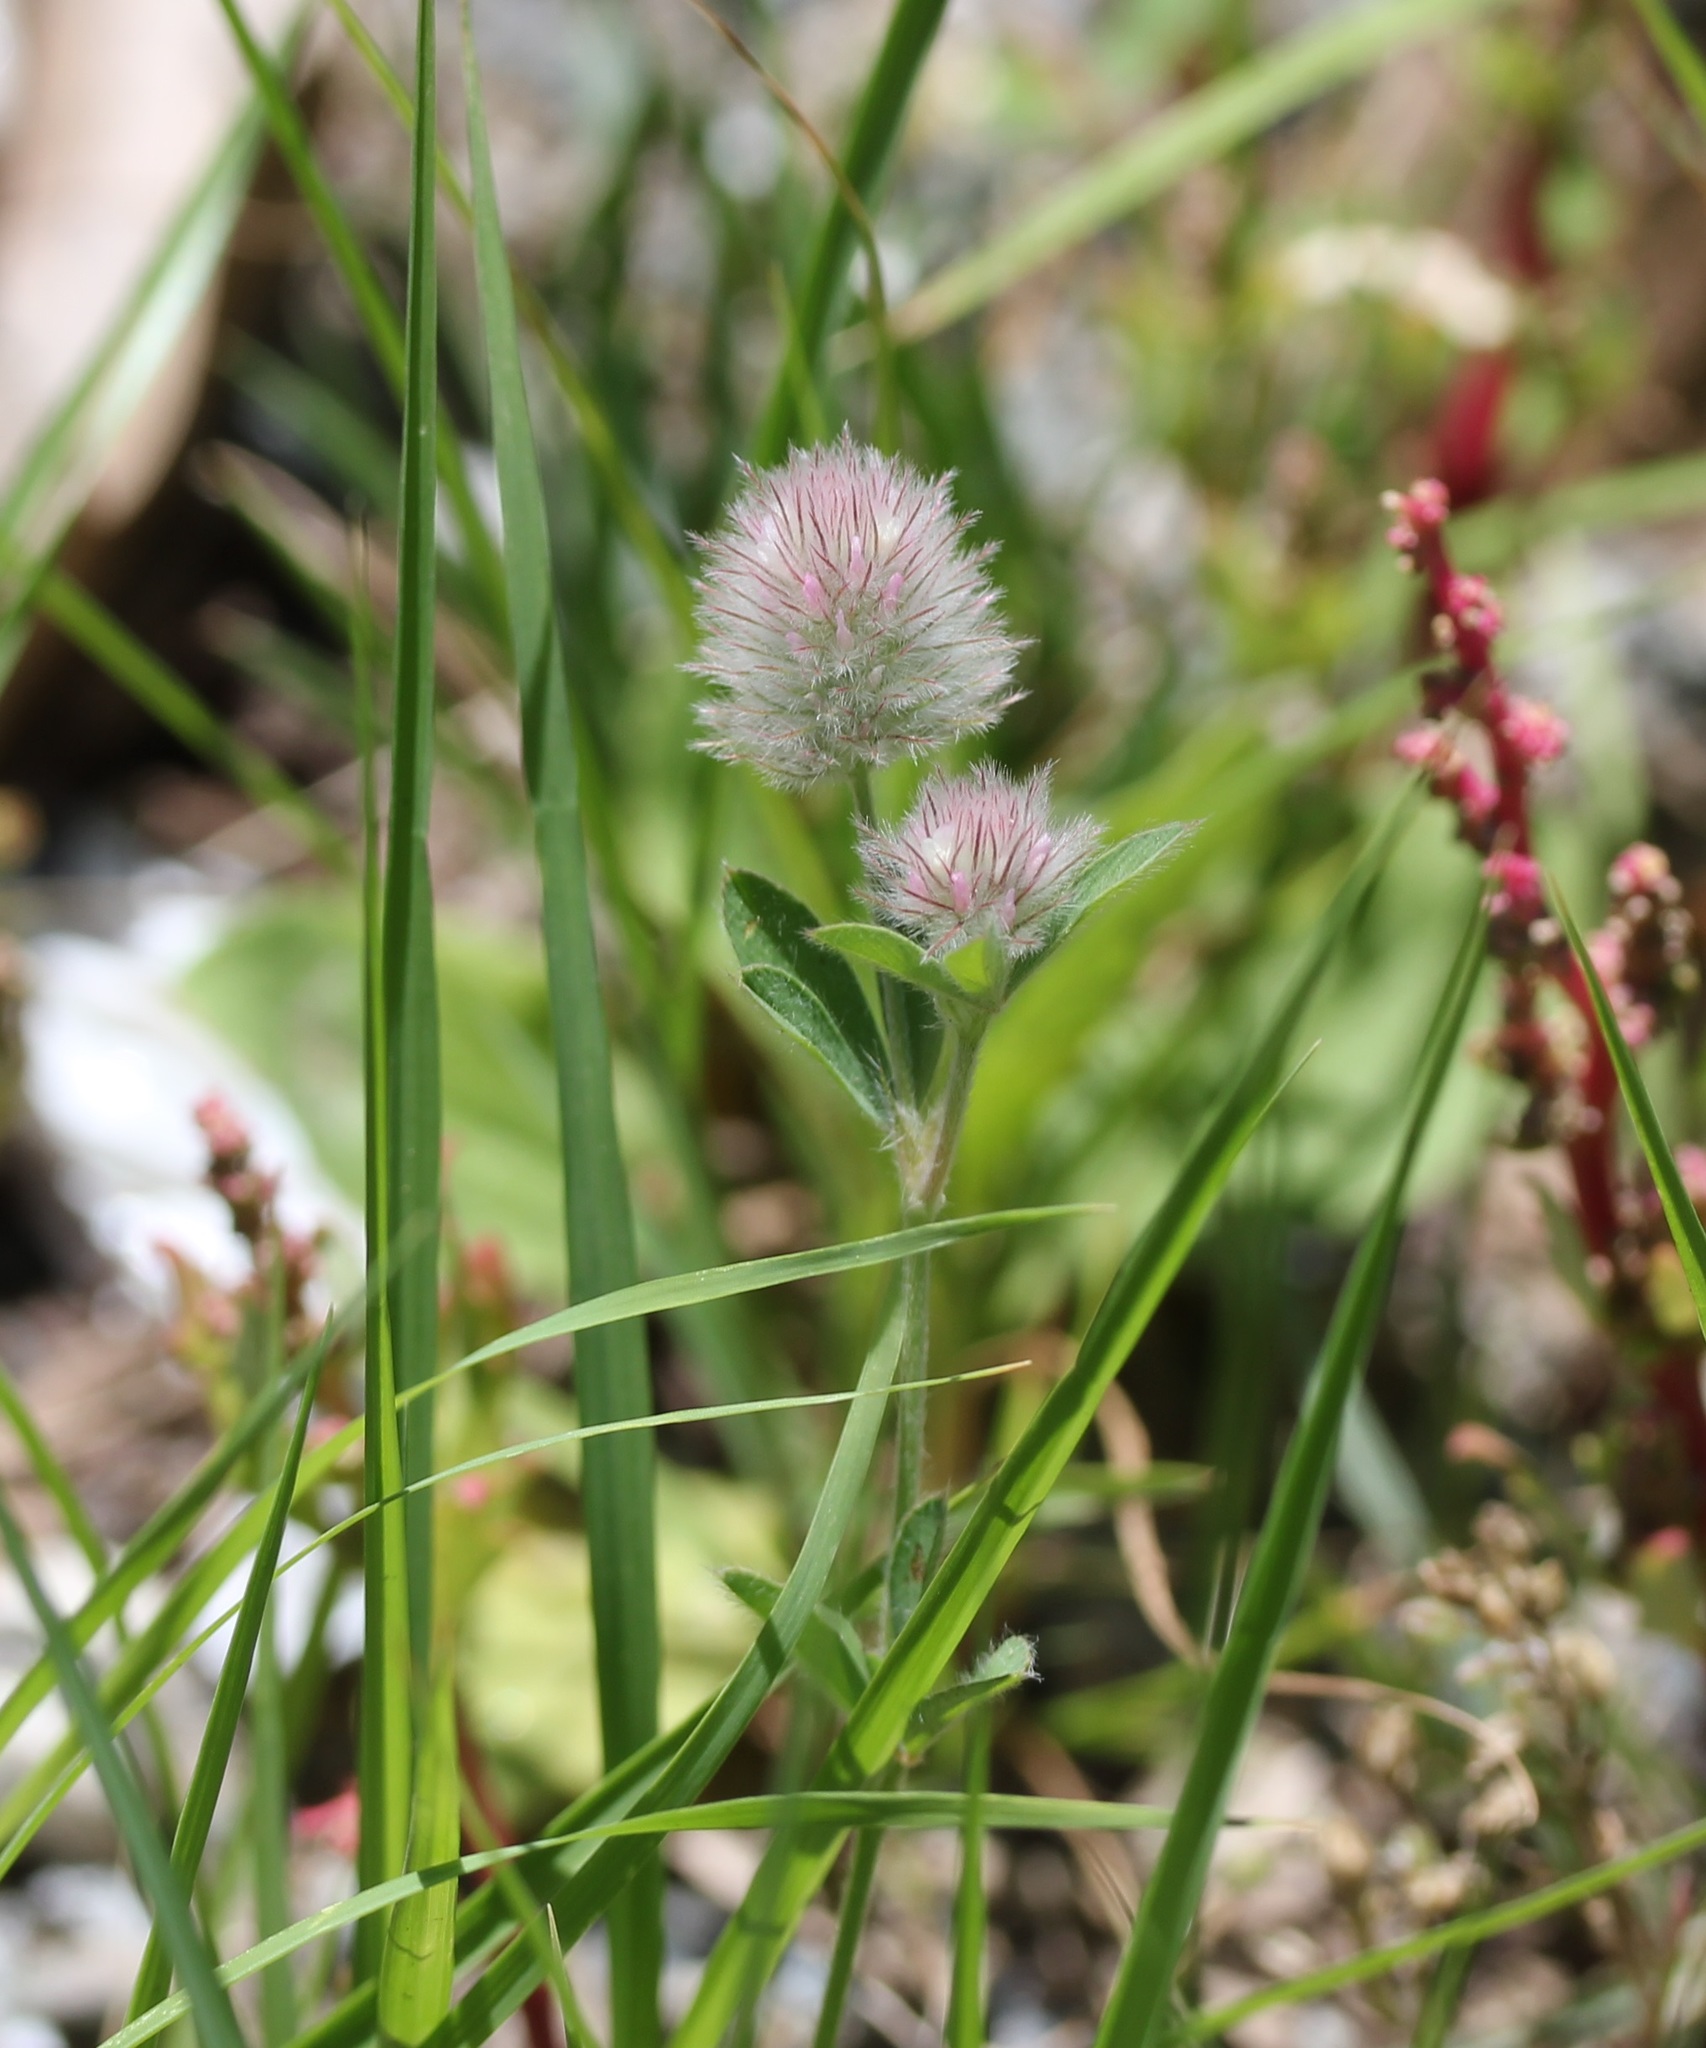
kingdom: Plantae
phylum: Tracheophyta
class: Magnoliopsida
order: Fabales
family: Fabaceae
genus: Trifolium
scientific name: Trifolium arvense
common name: Hare's-foot clover
